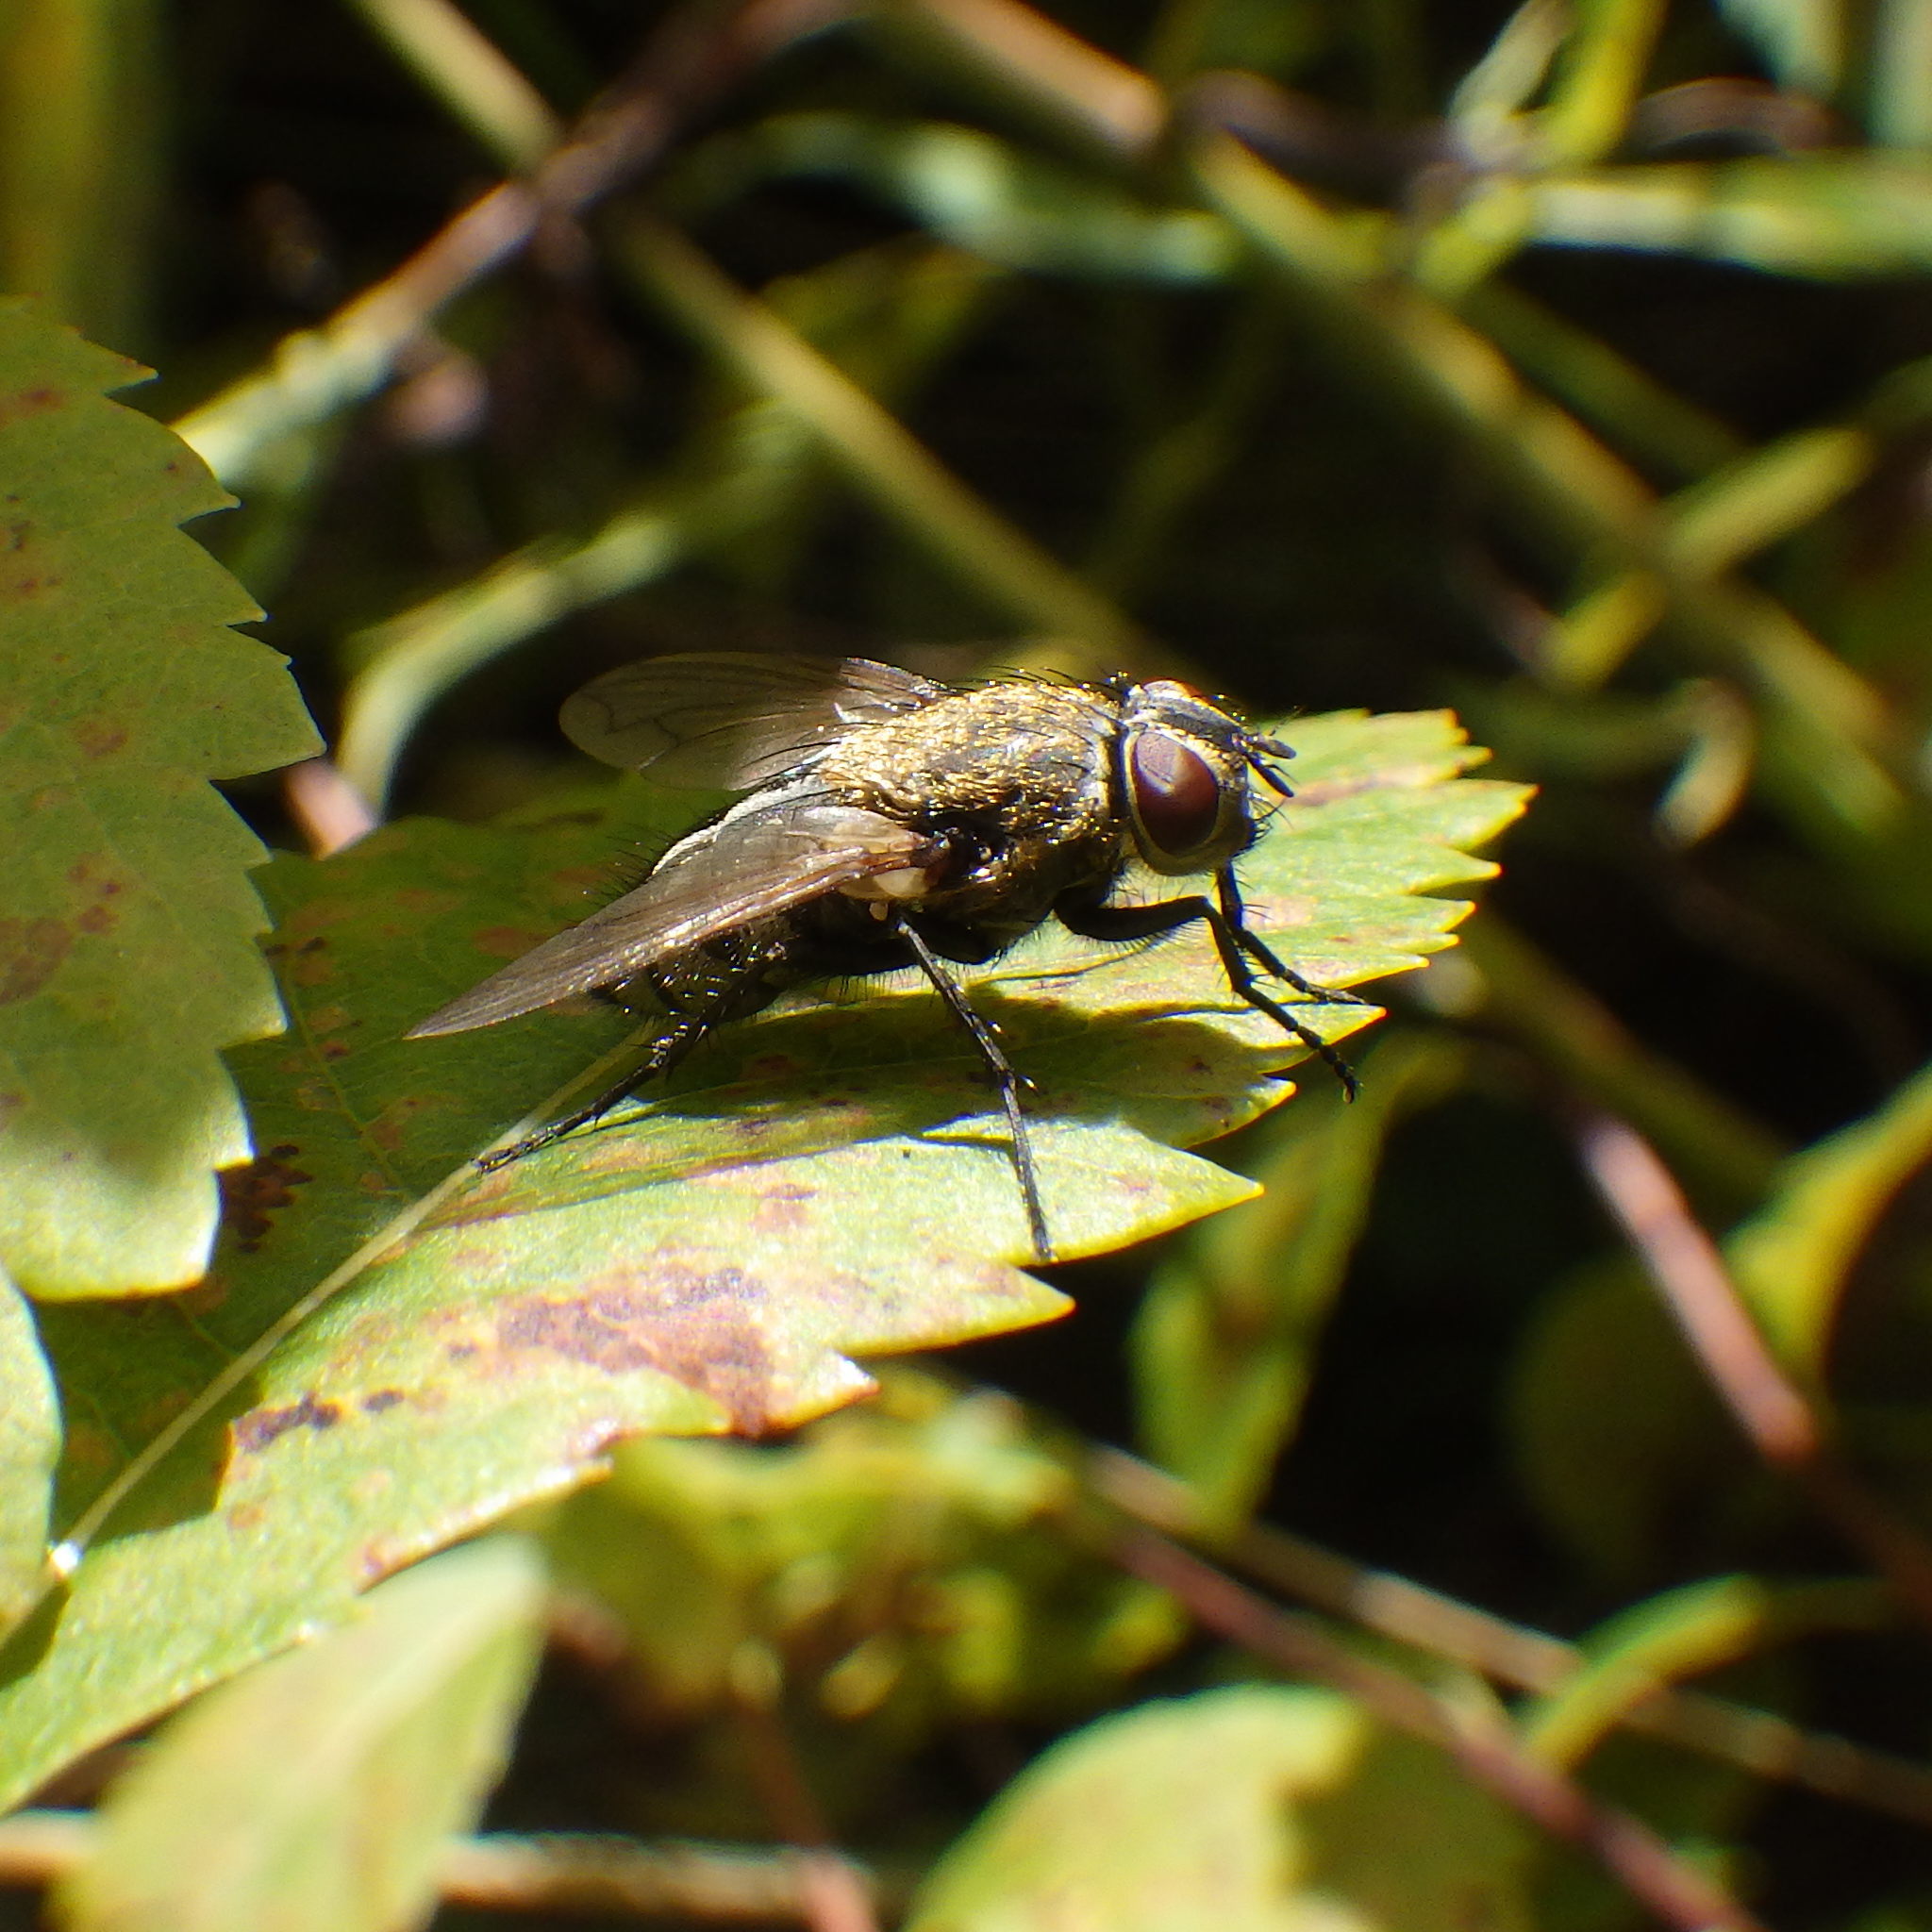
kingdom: Animalia
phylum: Arthropoda
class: Insecta
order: Diptera
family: Polleniidae
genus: Pollenia
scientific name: Pollenia
